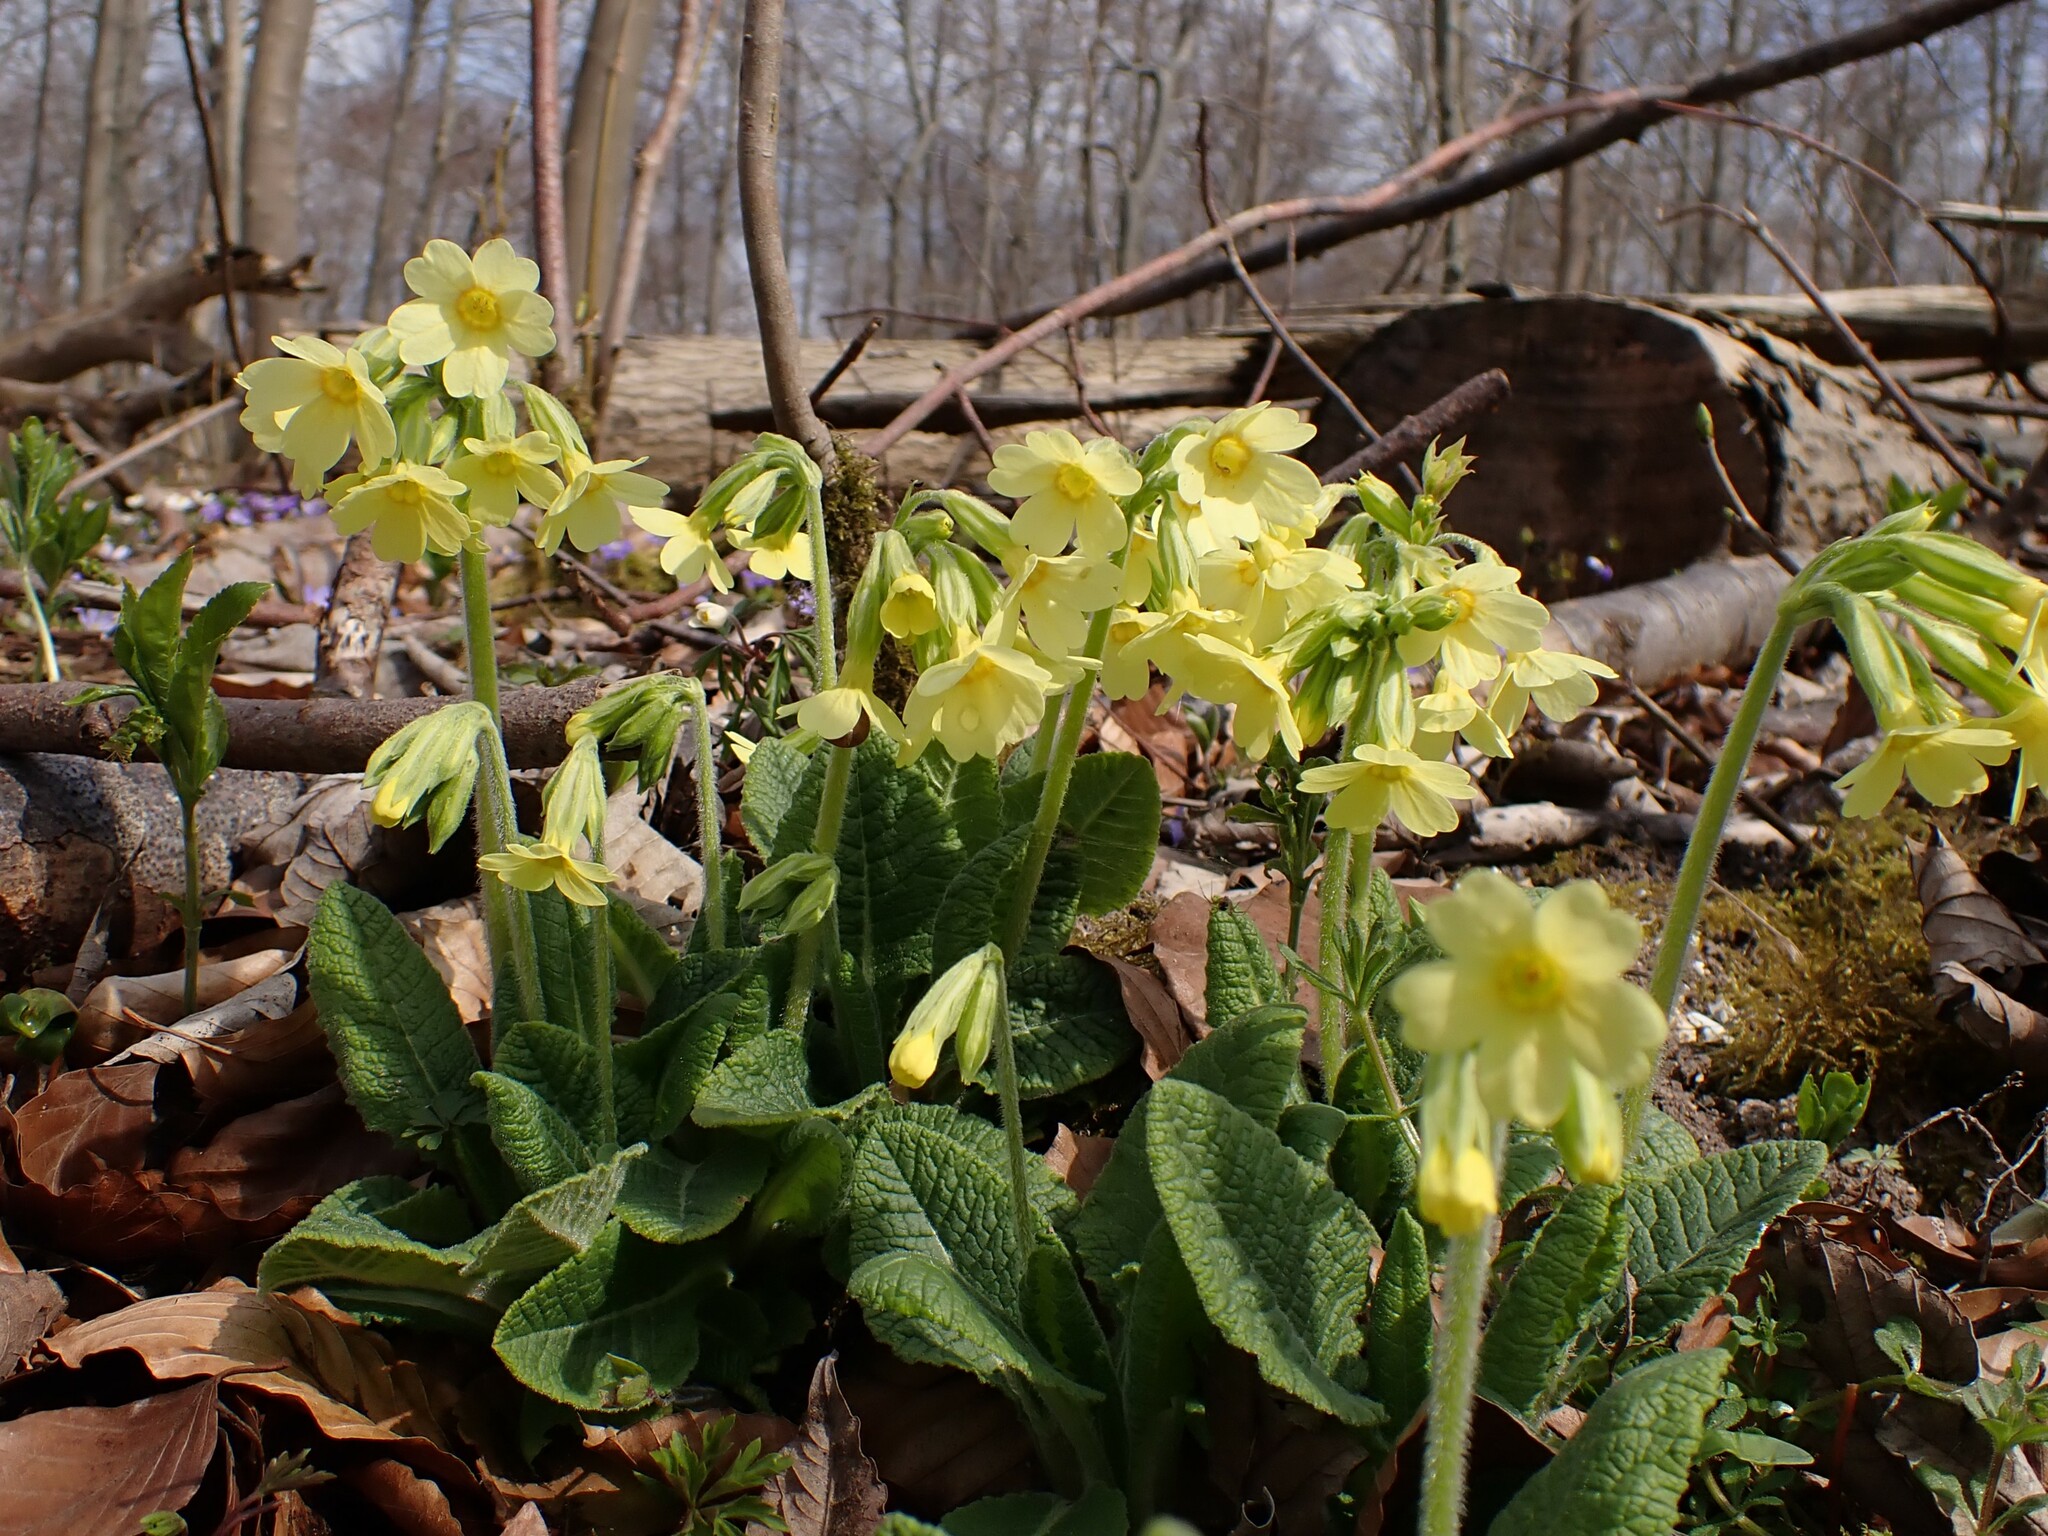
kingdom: Plantae
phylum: Tracheophyta
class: Magnoliopsida
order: Ericales
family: Primulaceae
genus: Primula
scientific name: Primula elatior
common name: Oxlip
